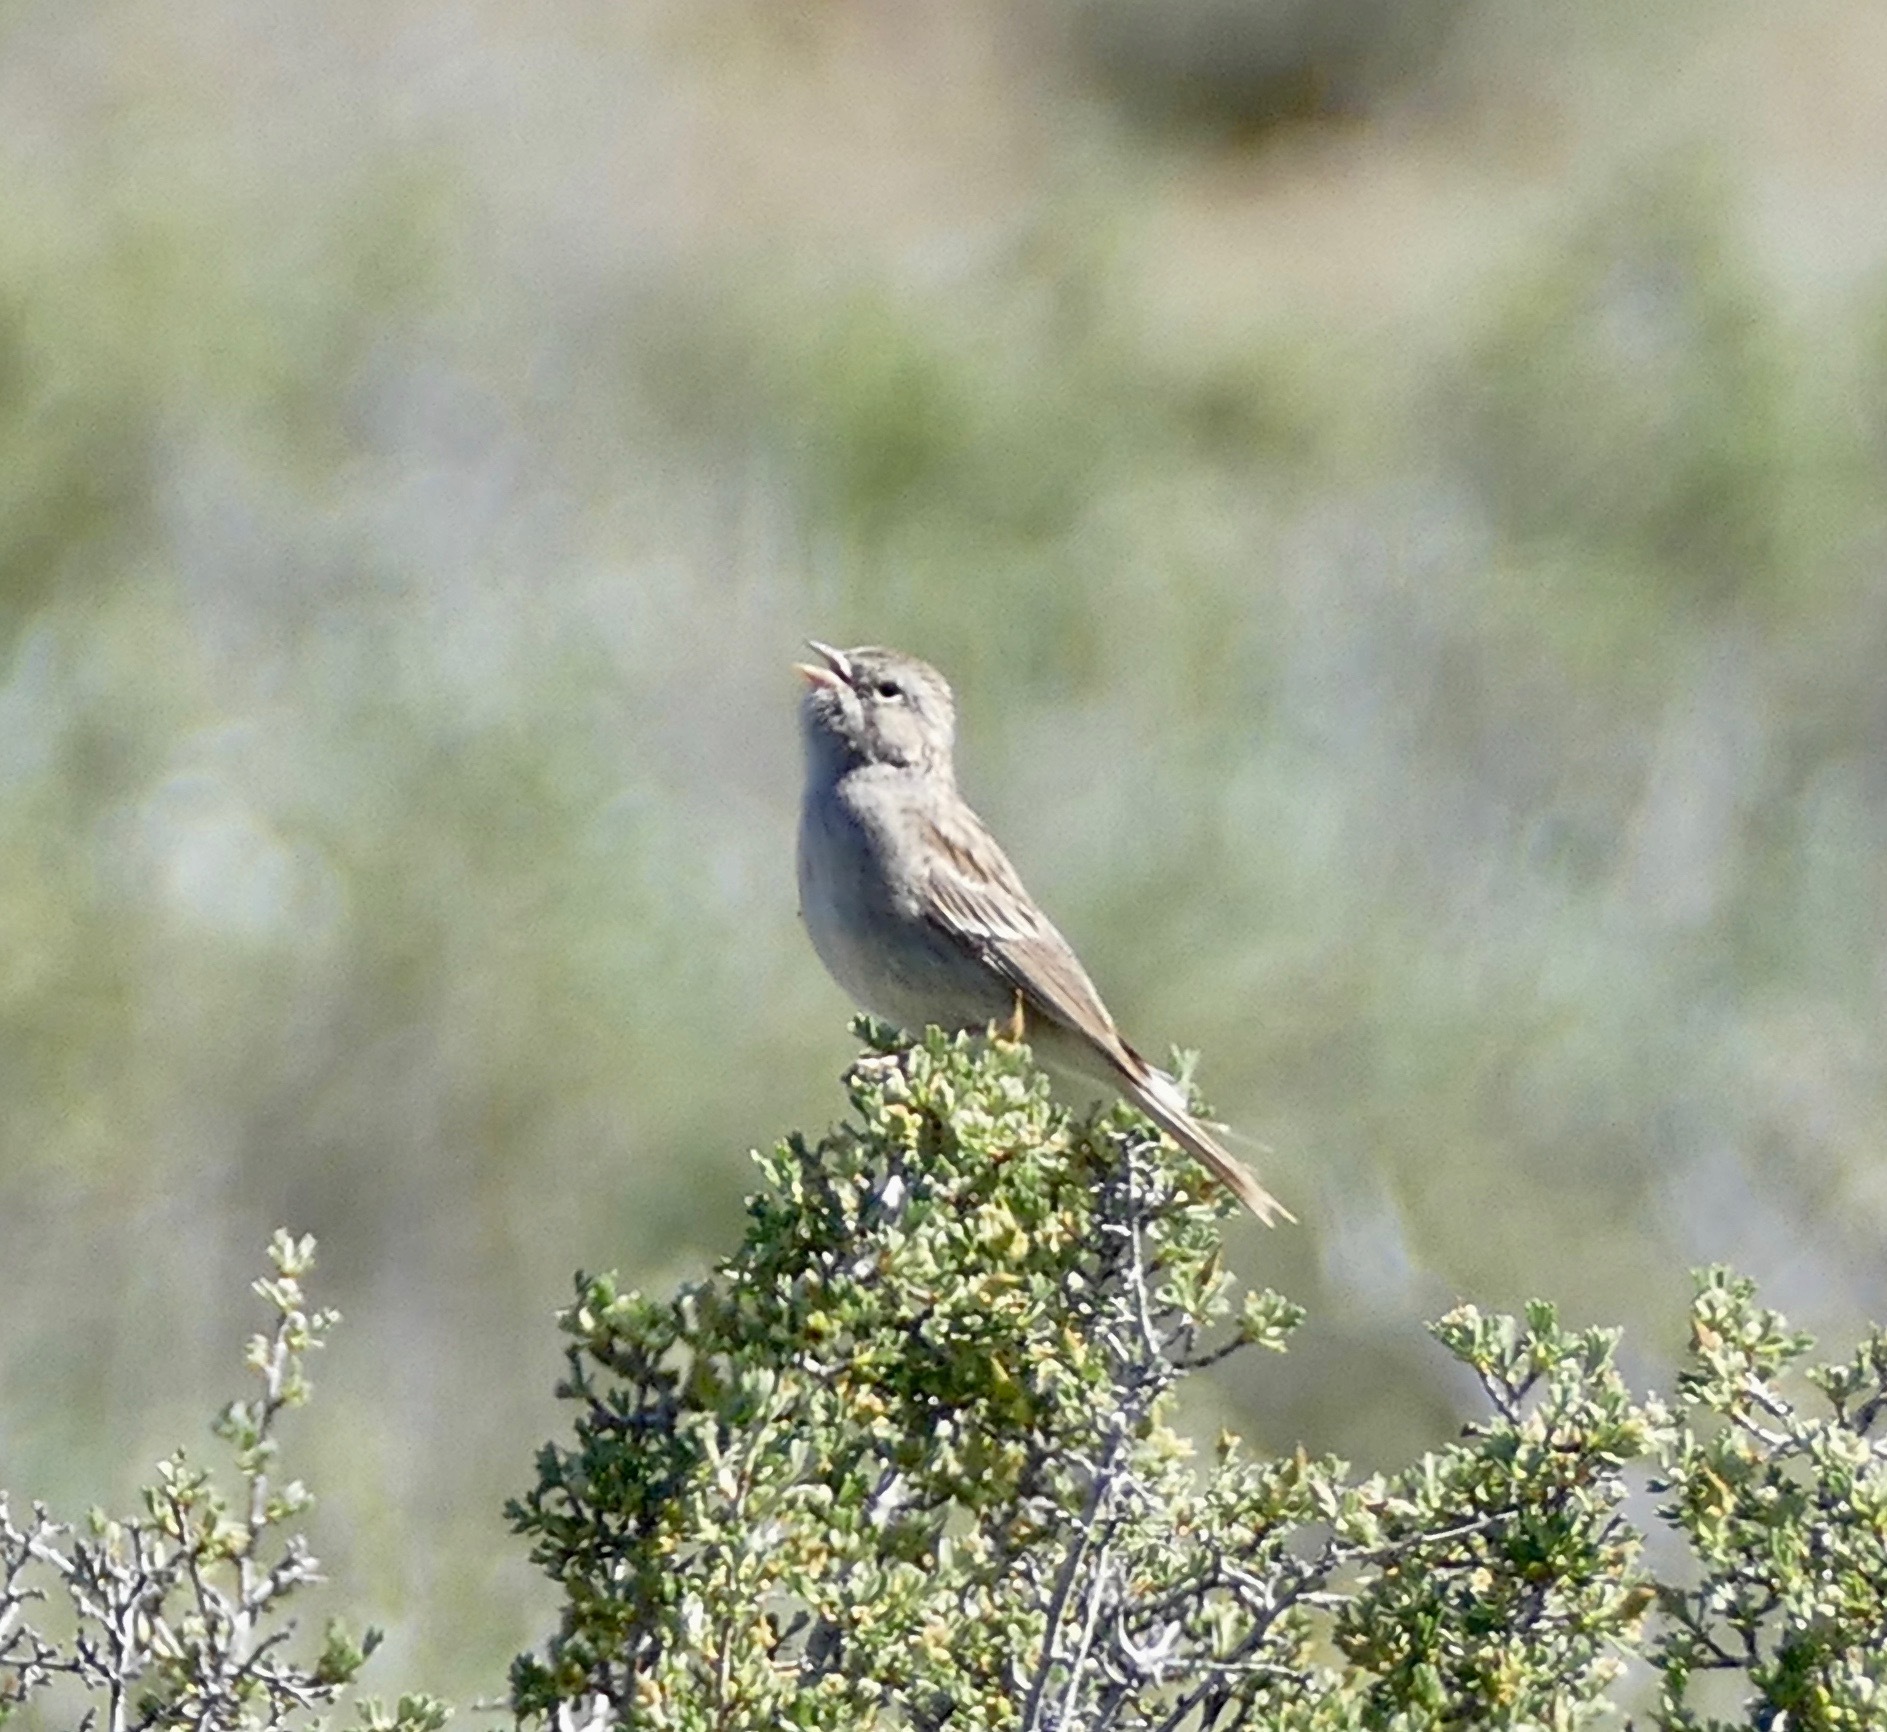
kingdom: Animalia
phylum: Chordata
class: Aves
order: Passeriformes
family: Passerellidae
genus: Spizella
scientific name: Spizella breweri
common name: Brewer's sparrow
